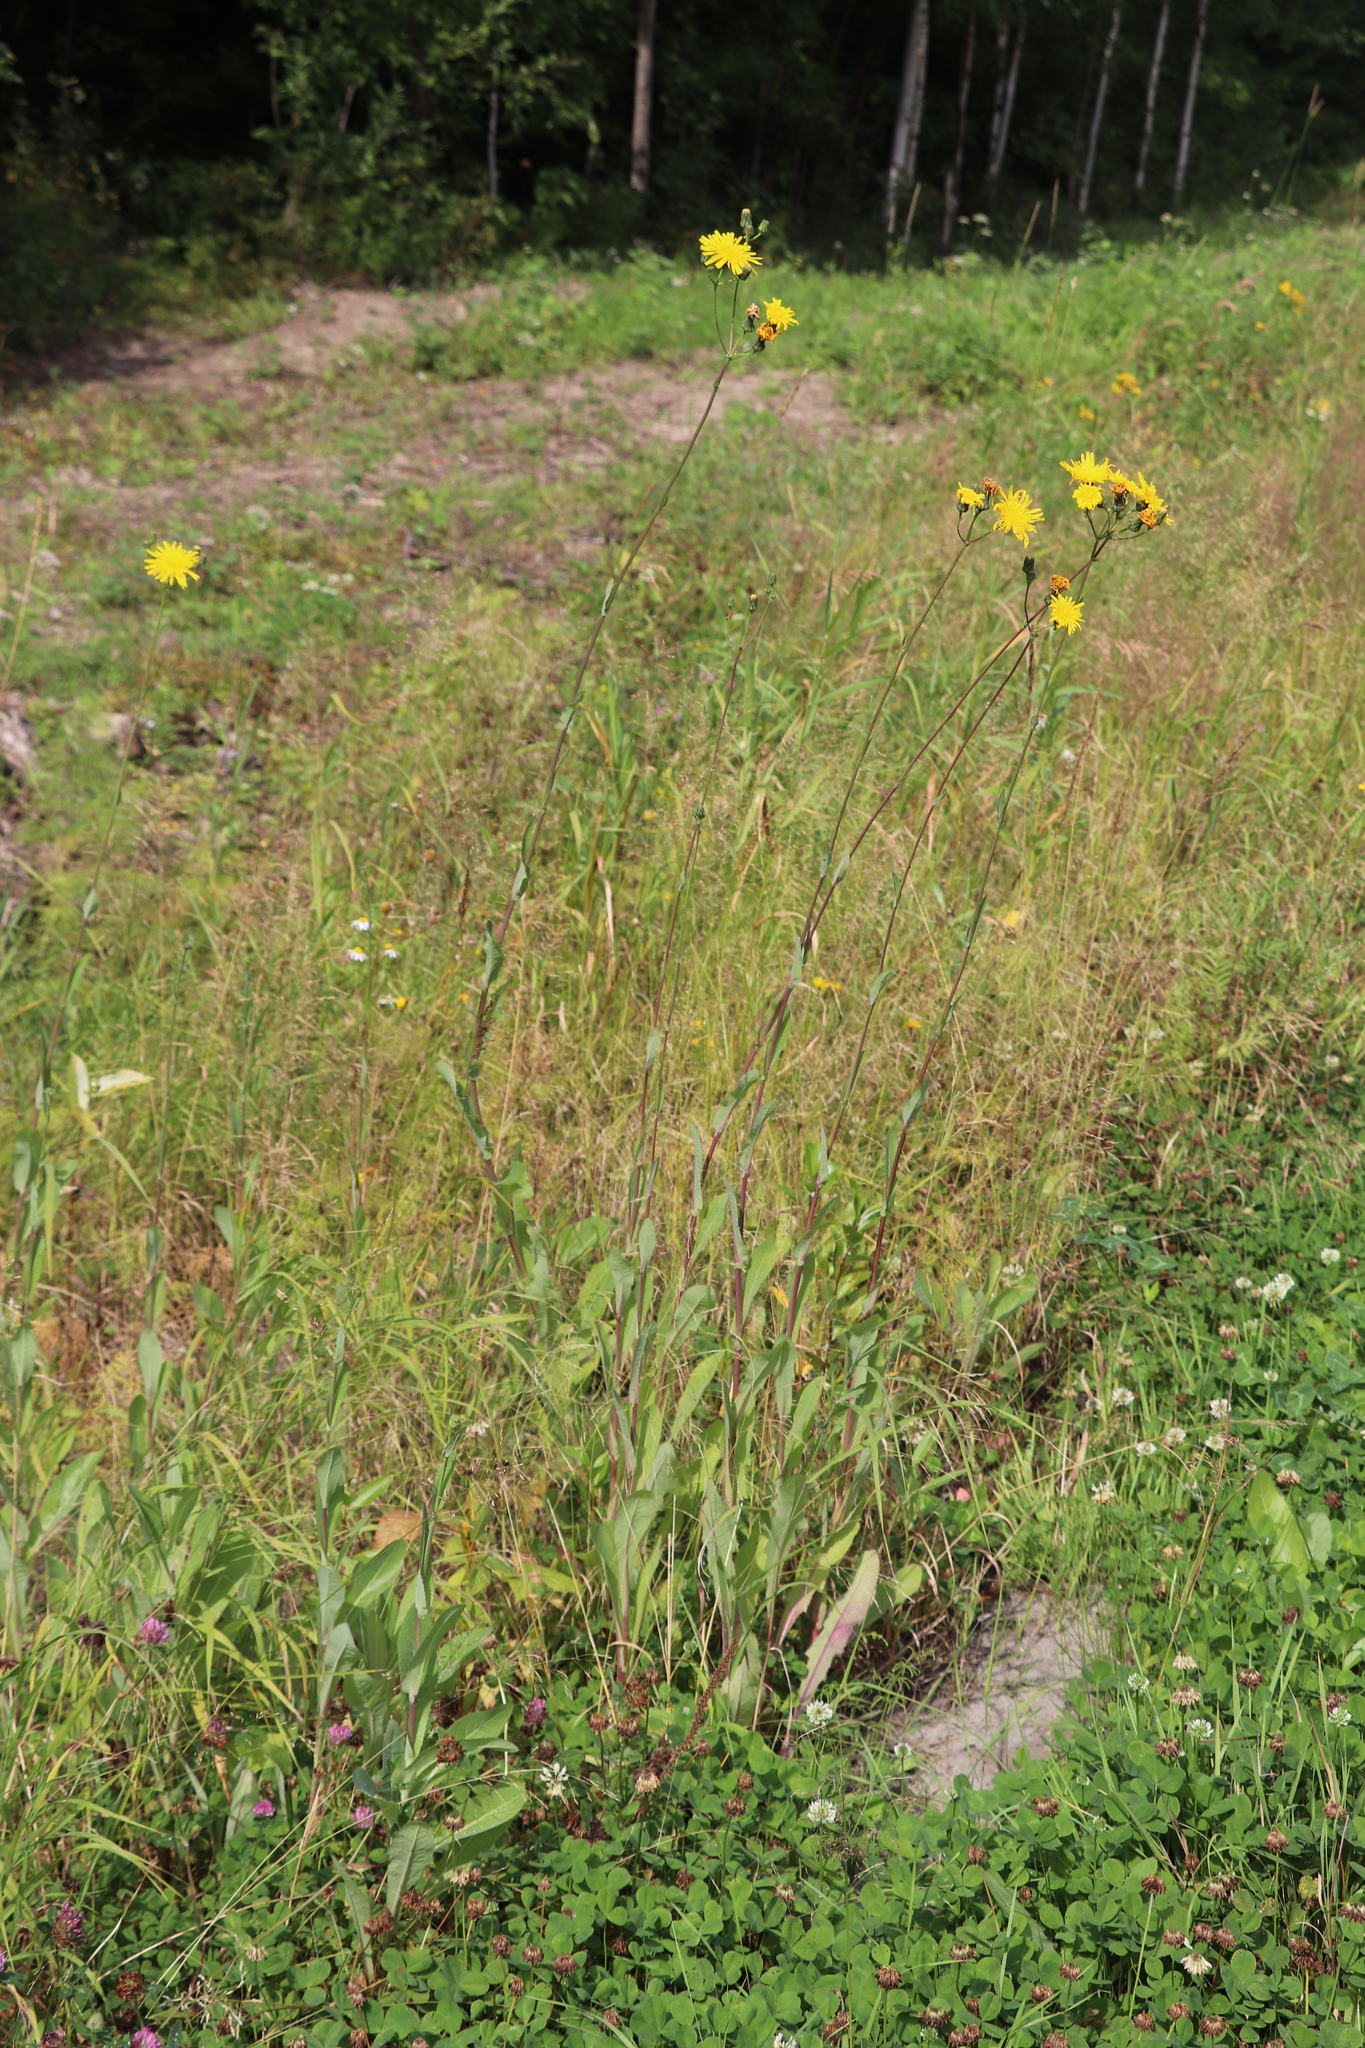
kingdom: Plantae
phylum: Tracheophyta
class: Magnoliopsida
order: Asterales
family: Asteraceae
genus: Sonchus
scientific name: Sonchus arvensis
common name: Perennial sow-thistle
